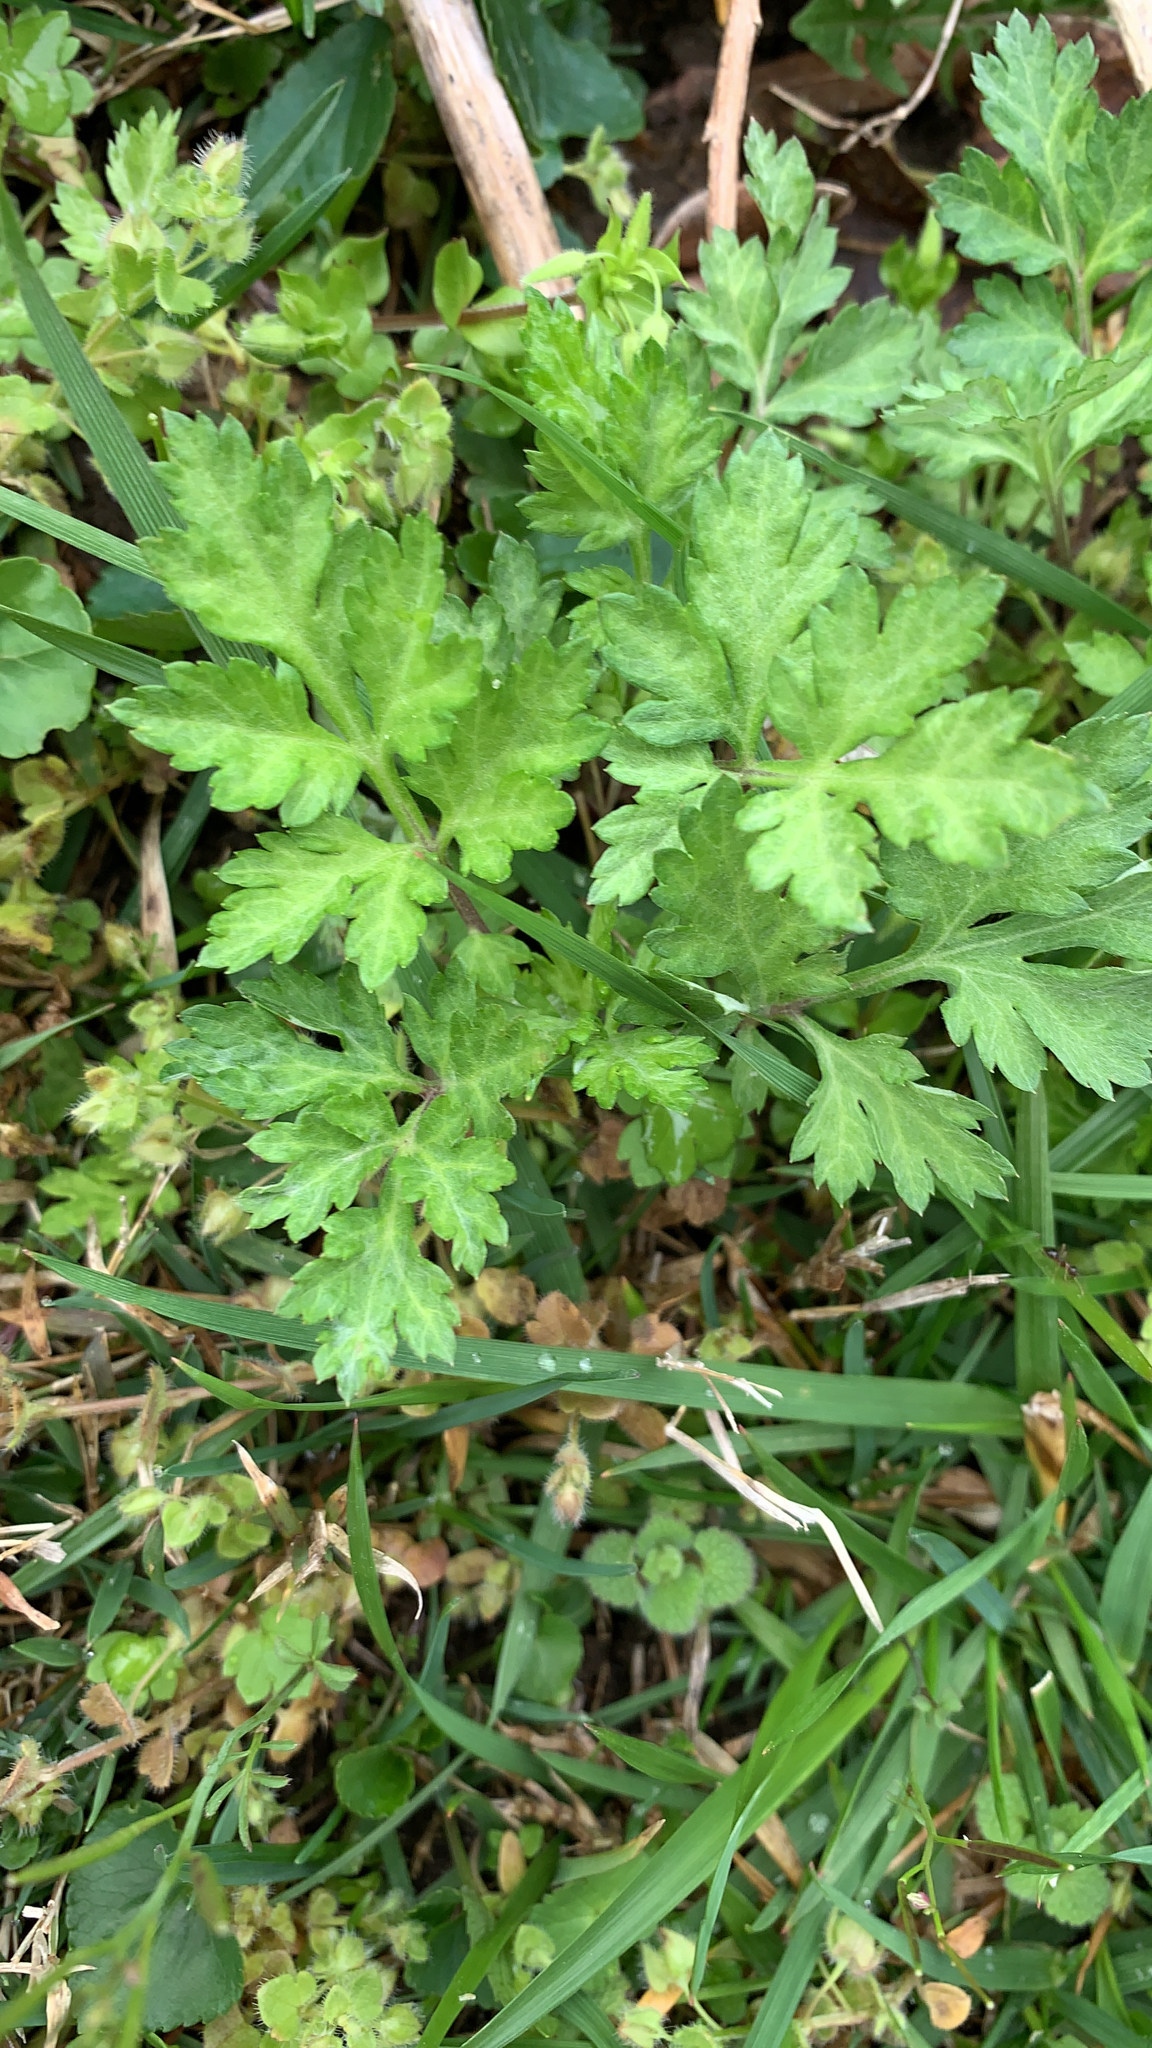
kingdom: Plantae
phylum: Tracheophyta
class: Magnoliopsida
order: Asterales
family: Asteraceae
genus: Artemisia
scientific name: Artemisia vulgaris
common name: Mugwort
